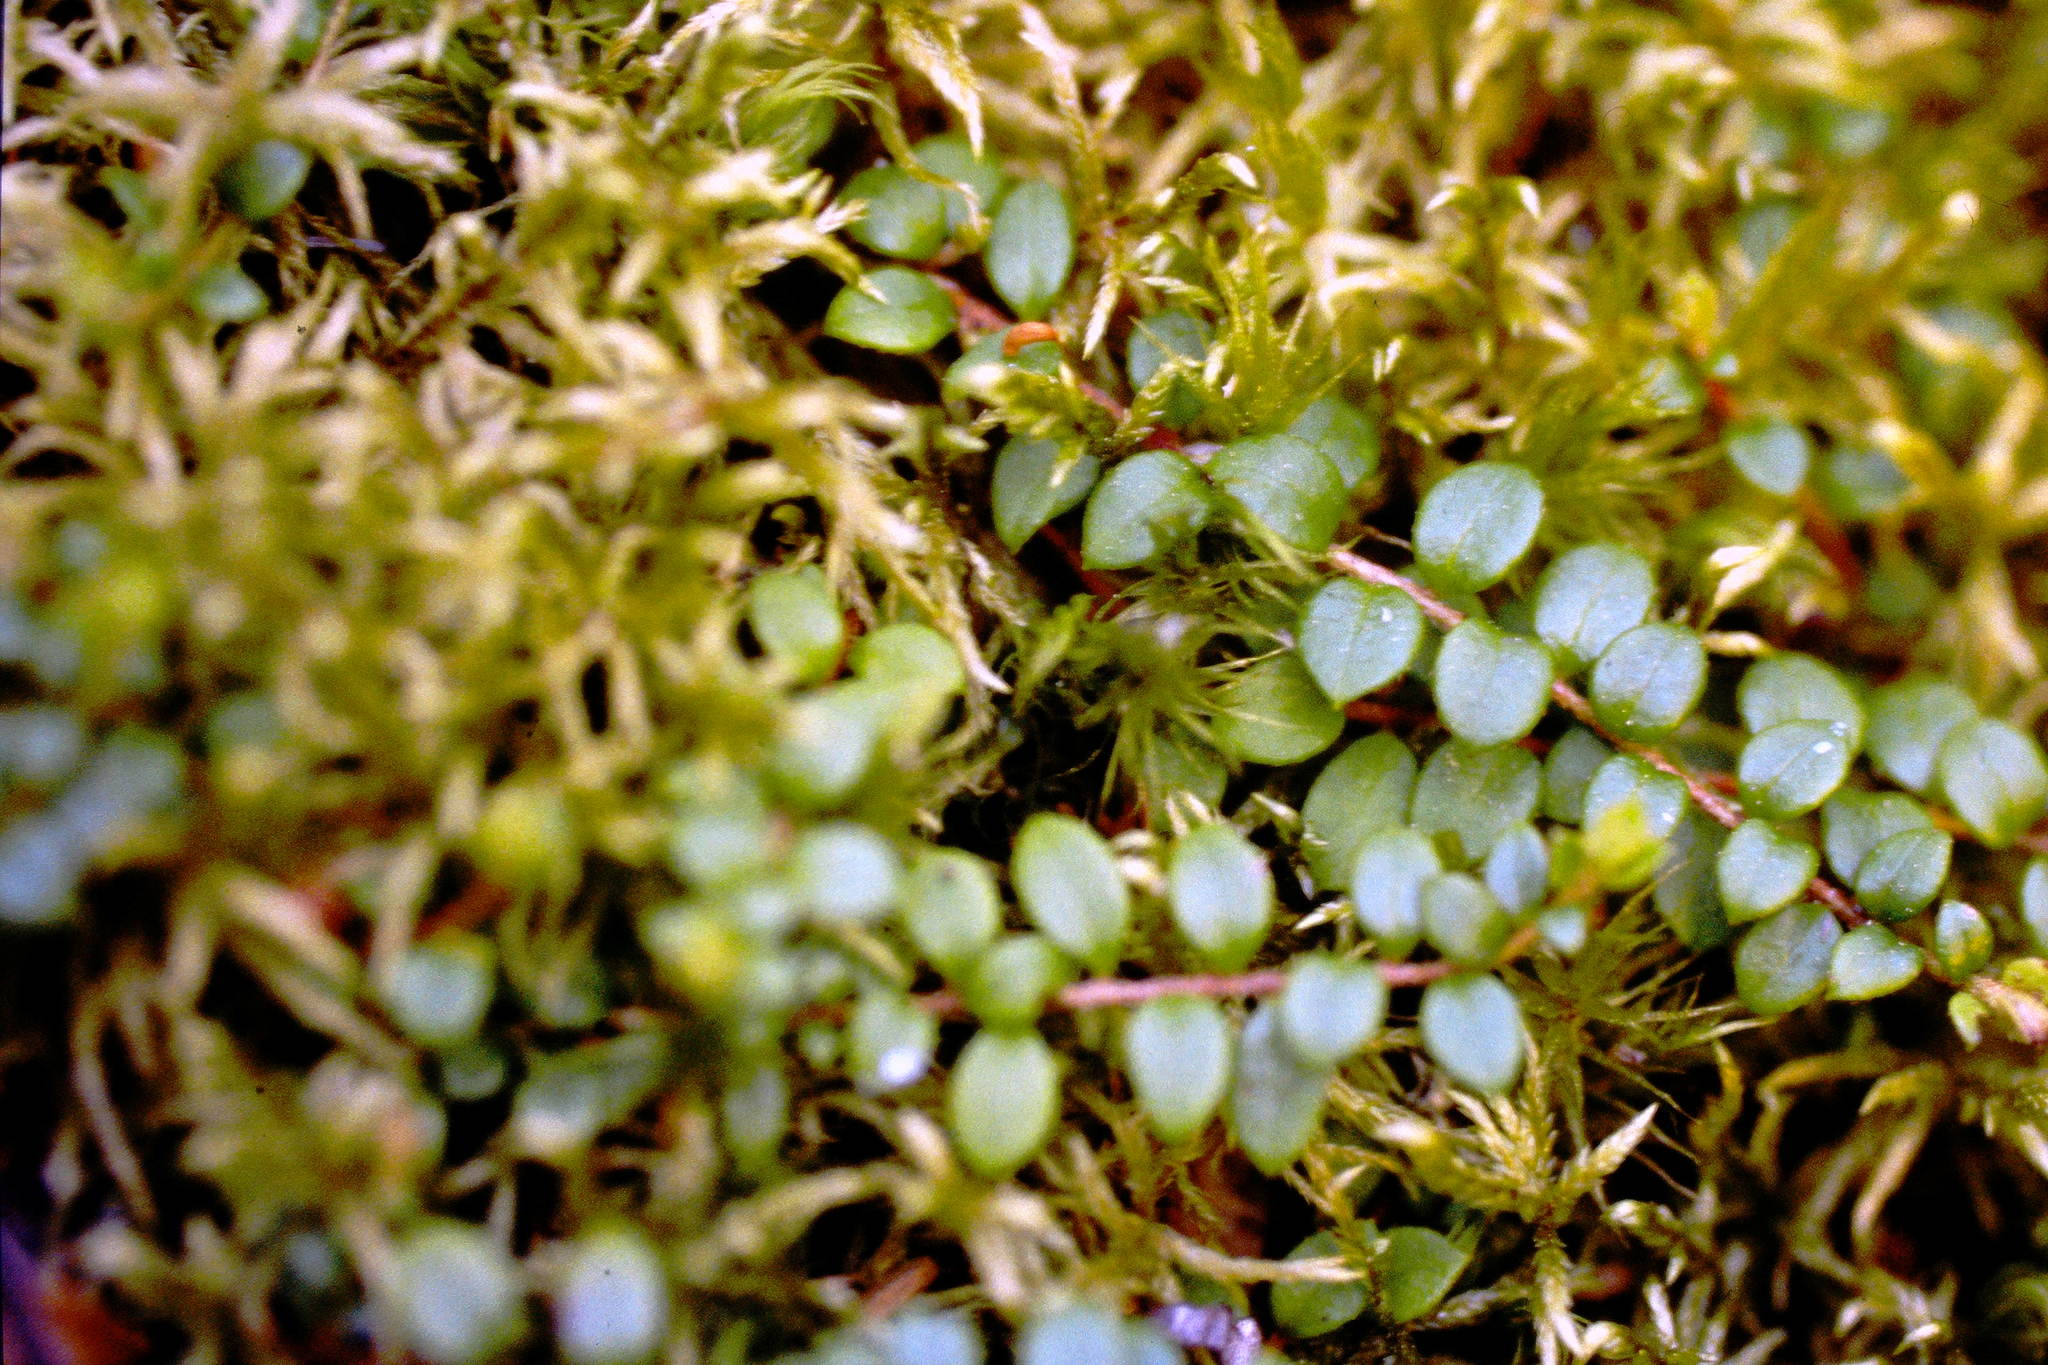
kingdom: Plantae
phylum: Tracheophyta
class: Magnoliopsida
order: Ericales
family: Ericaceae
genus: Gaultheria
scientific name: Gaultheria hispidula
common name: Cancer wintergreen
